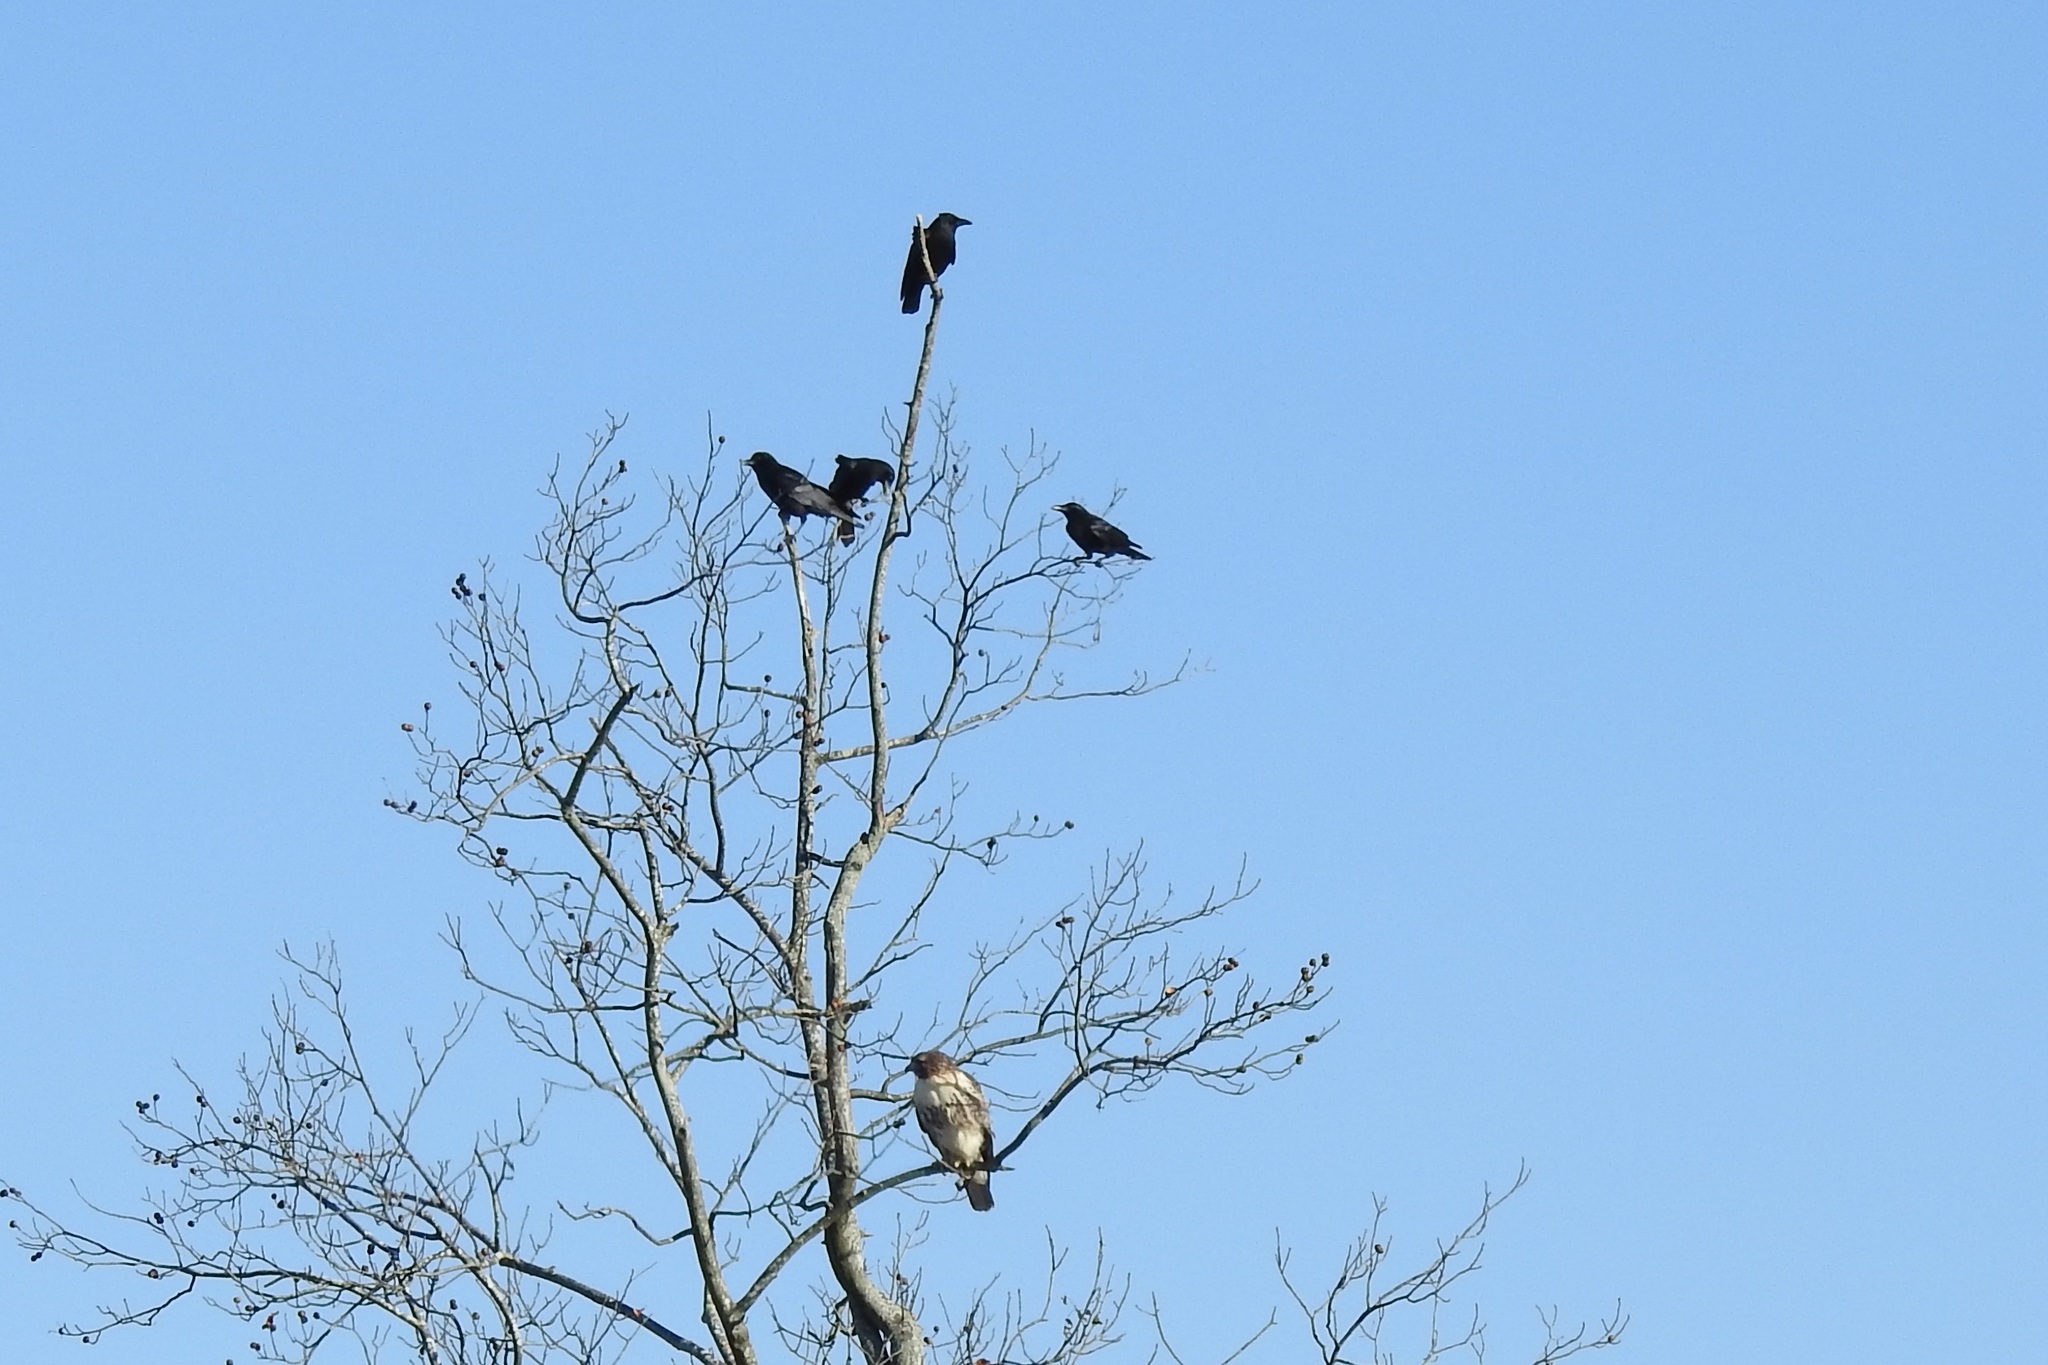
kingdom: Animalia
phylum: Chordata
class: Aves
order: Accipitriformes
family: Accipitridae
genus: Buteo
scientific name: Buteo jamaicensis
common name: Red-tailed hawk
